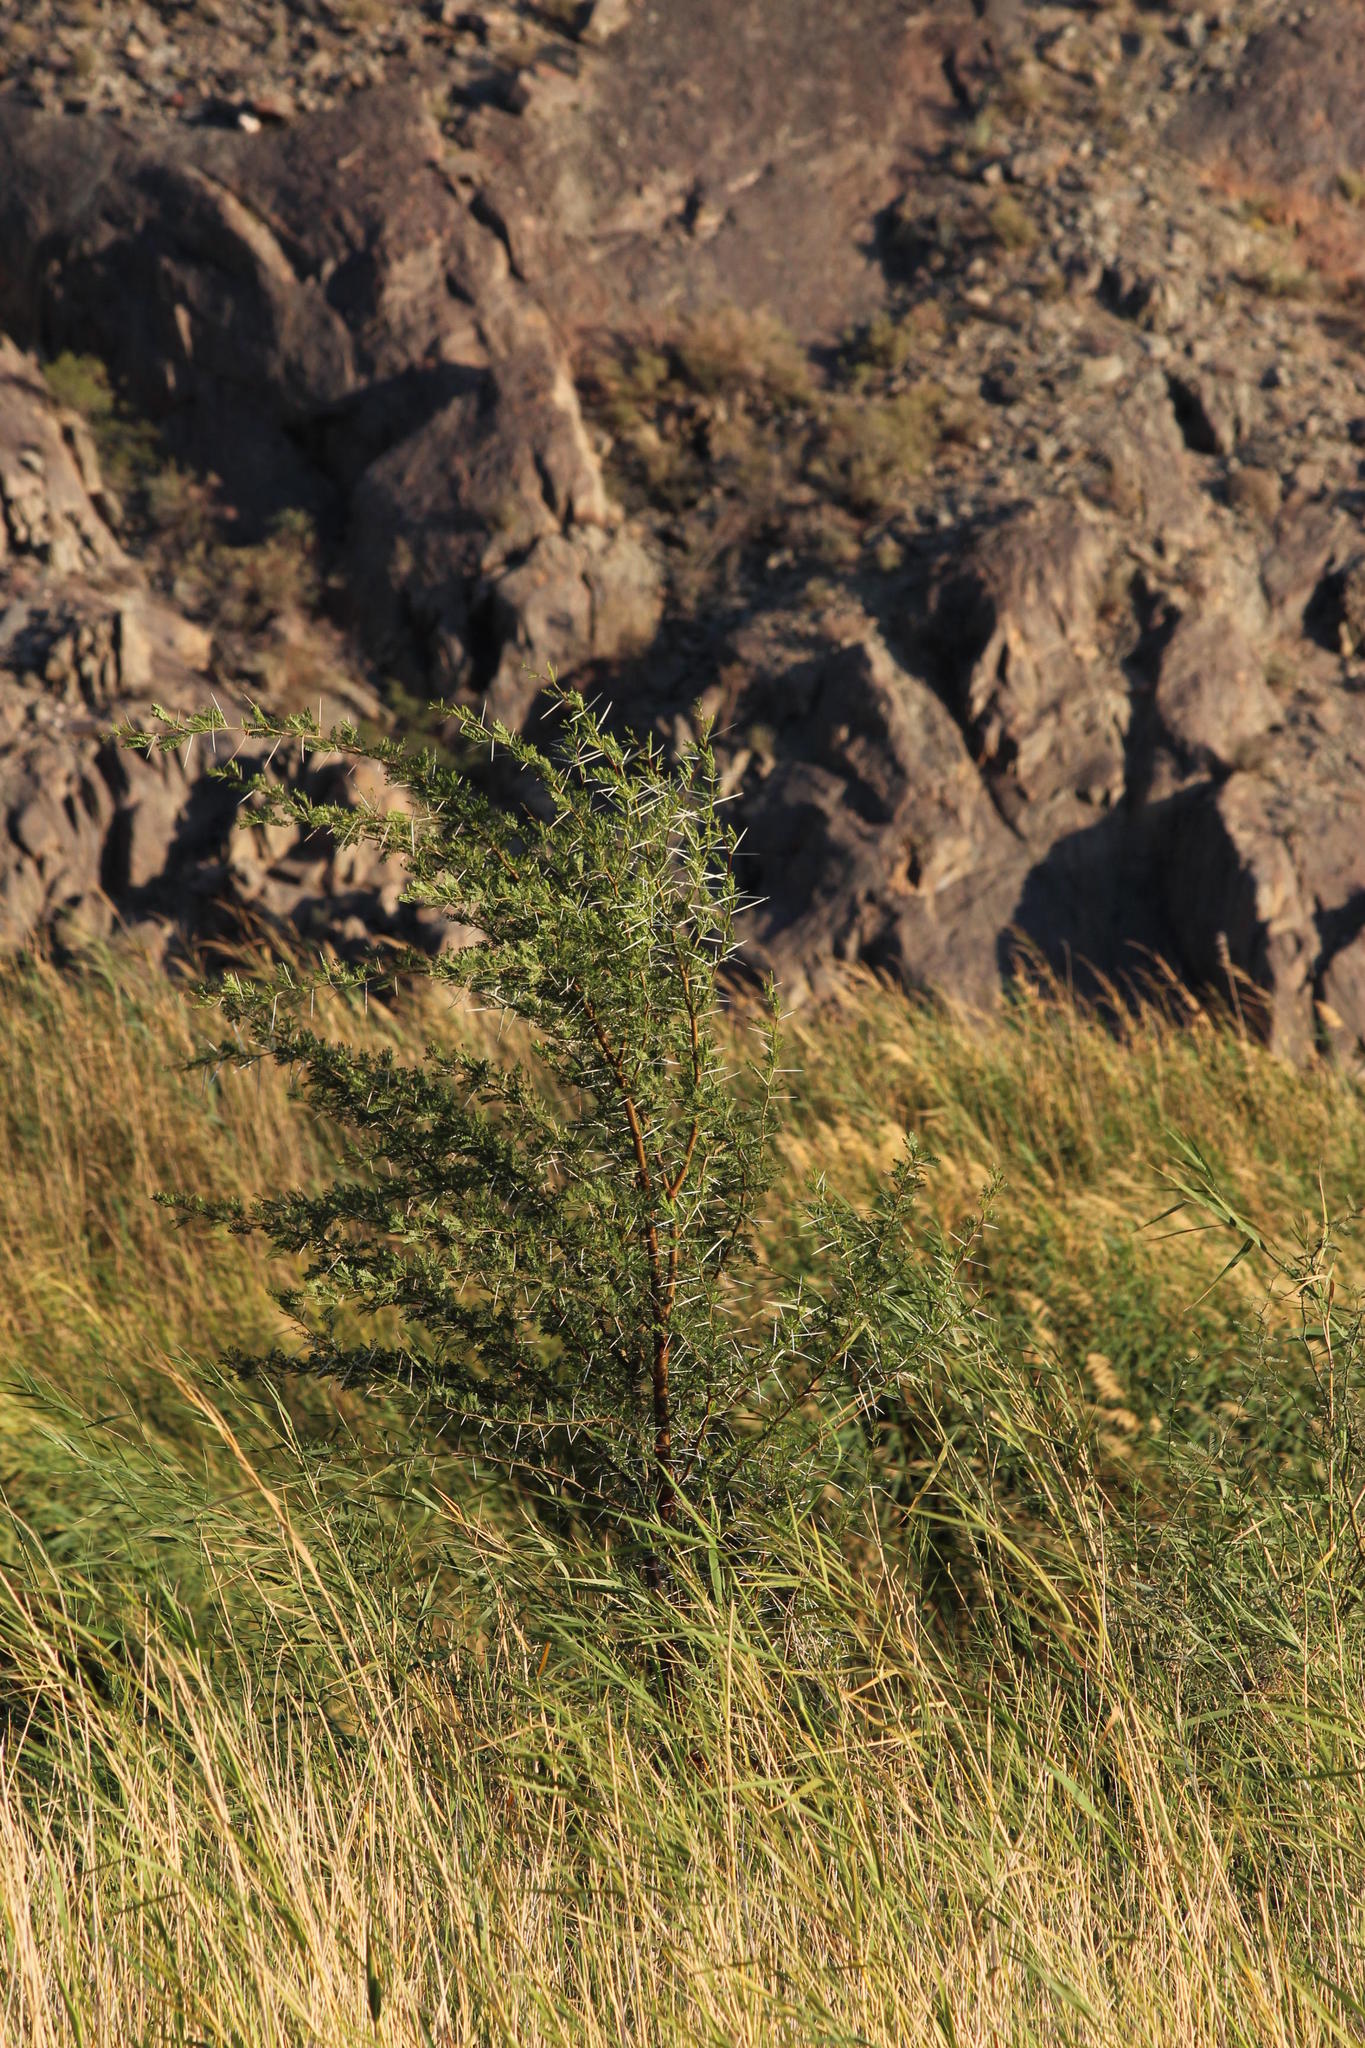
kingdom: Plantae
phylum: Tracheophyta
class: Magnoliopsida
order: Fabales
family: Fabaceae
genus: Vachellia
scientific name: Vachellia karroo
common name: Sweet thorn
